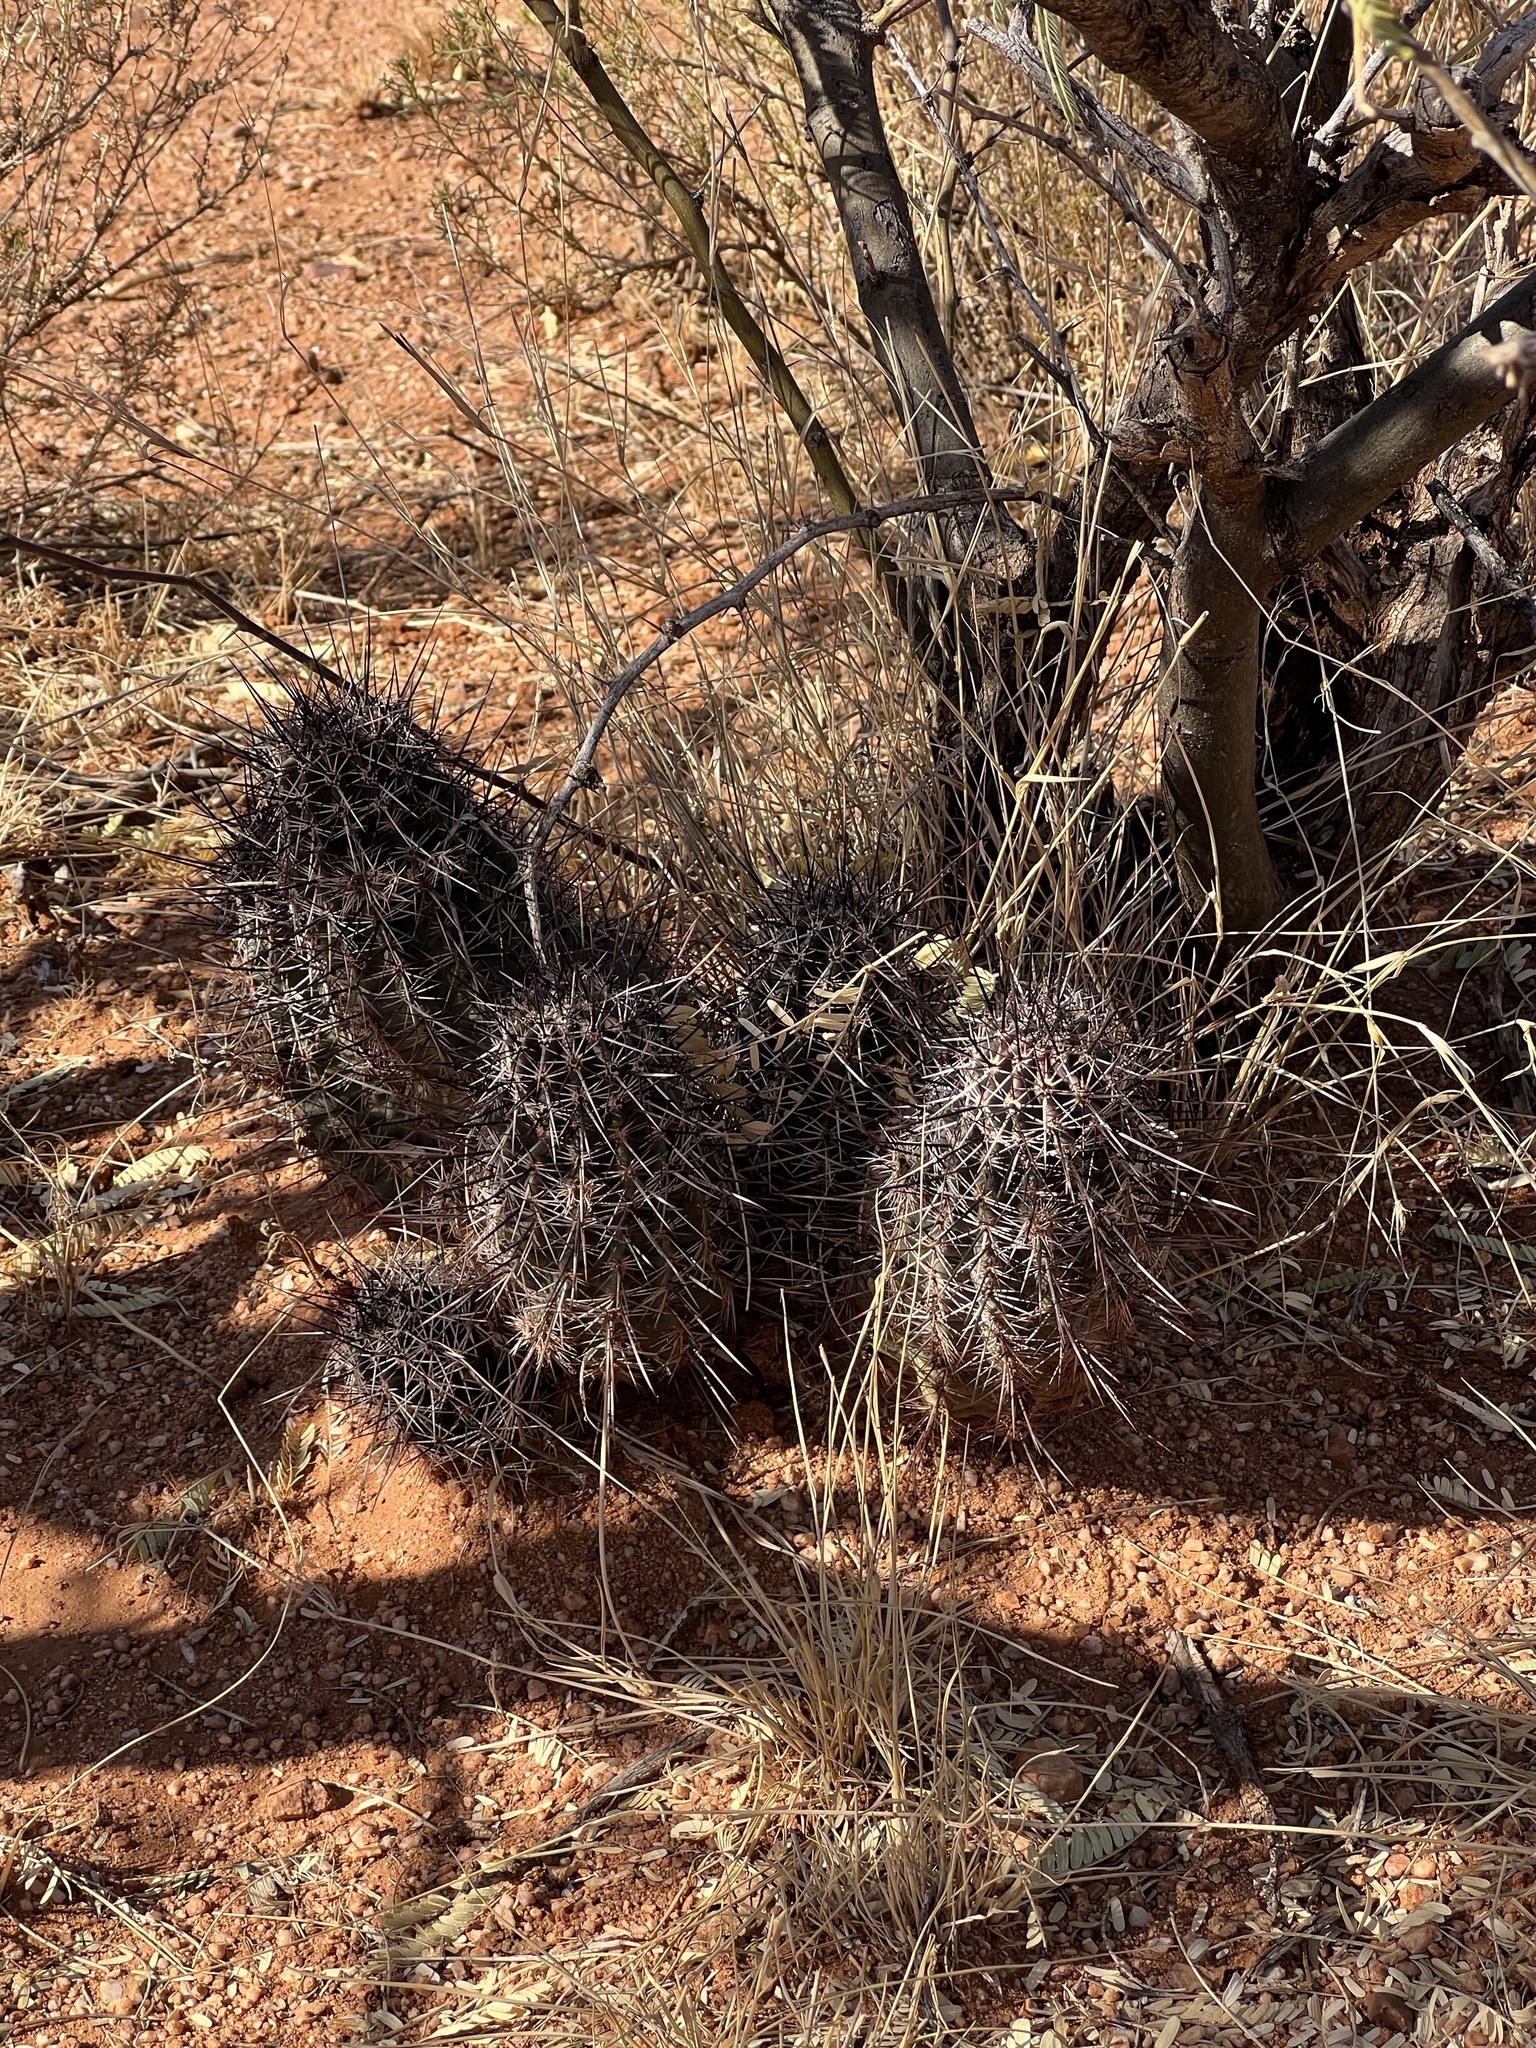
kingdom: Plantae
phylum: Tracheophyta
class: Magnoliopsida
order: Caryophyllales
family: Cactaceae
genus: Echinocereus
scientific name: Echinocereus fasciculatus
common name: Bundle hedgehog
